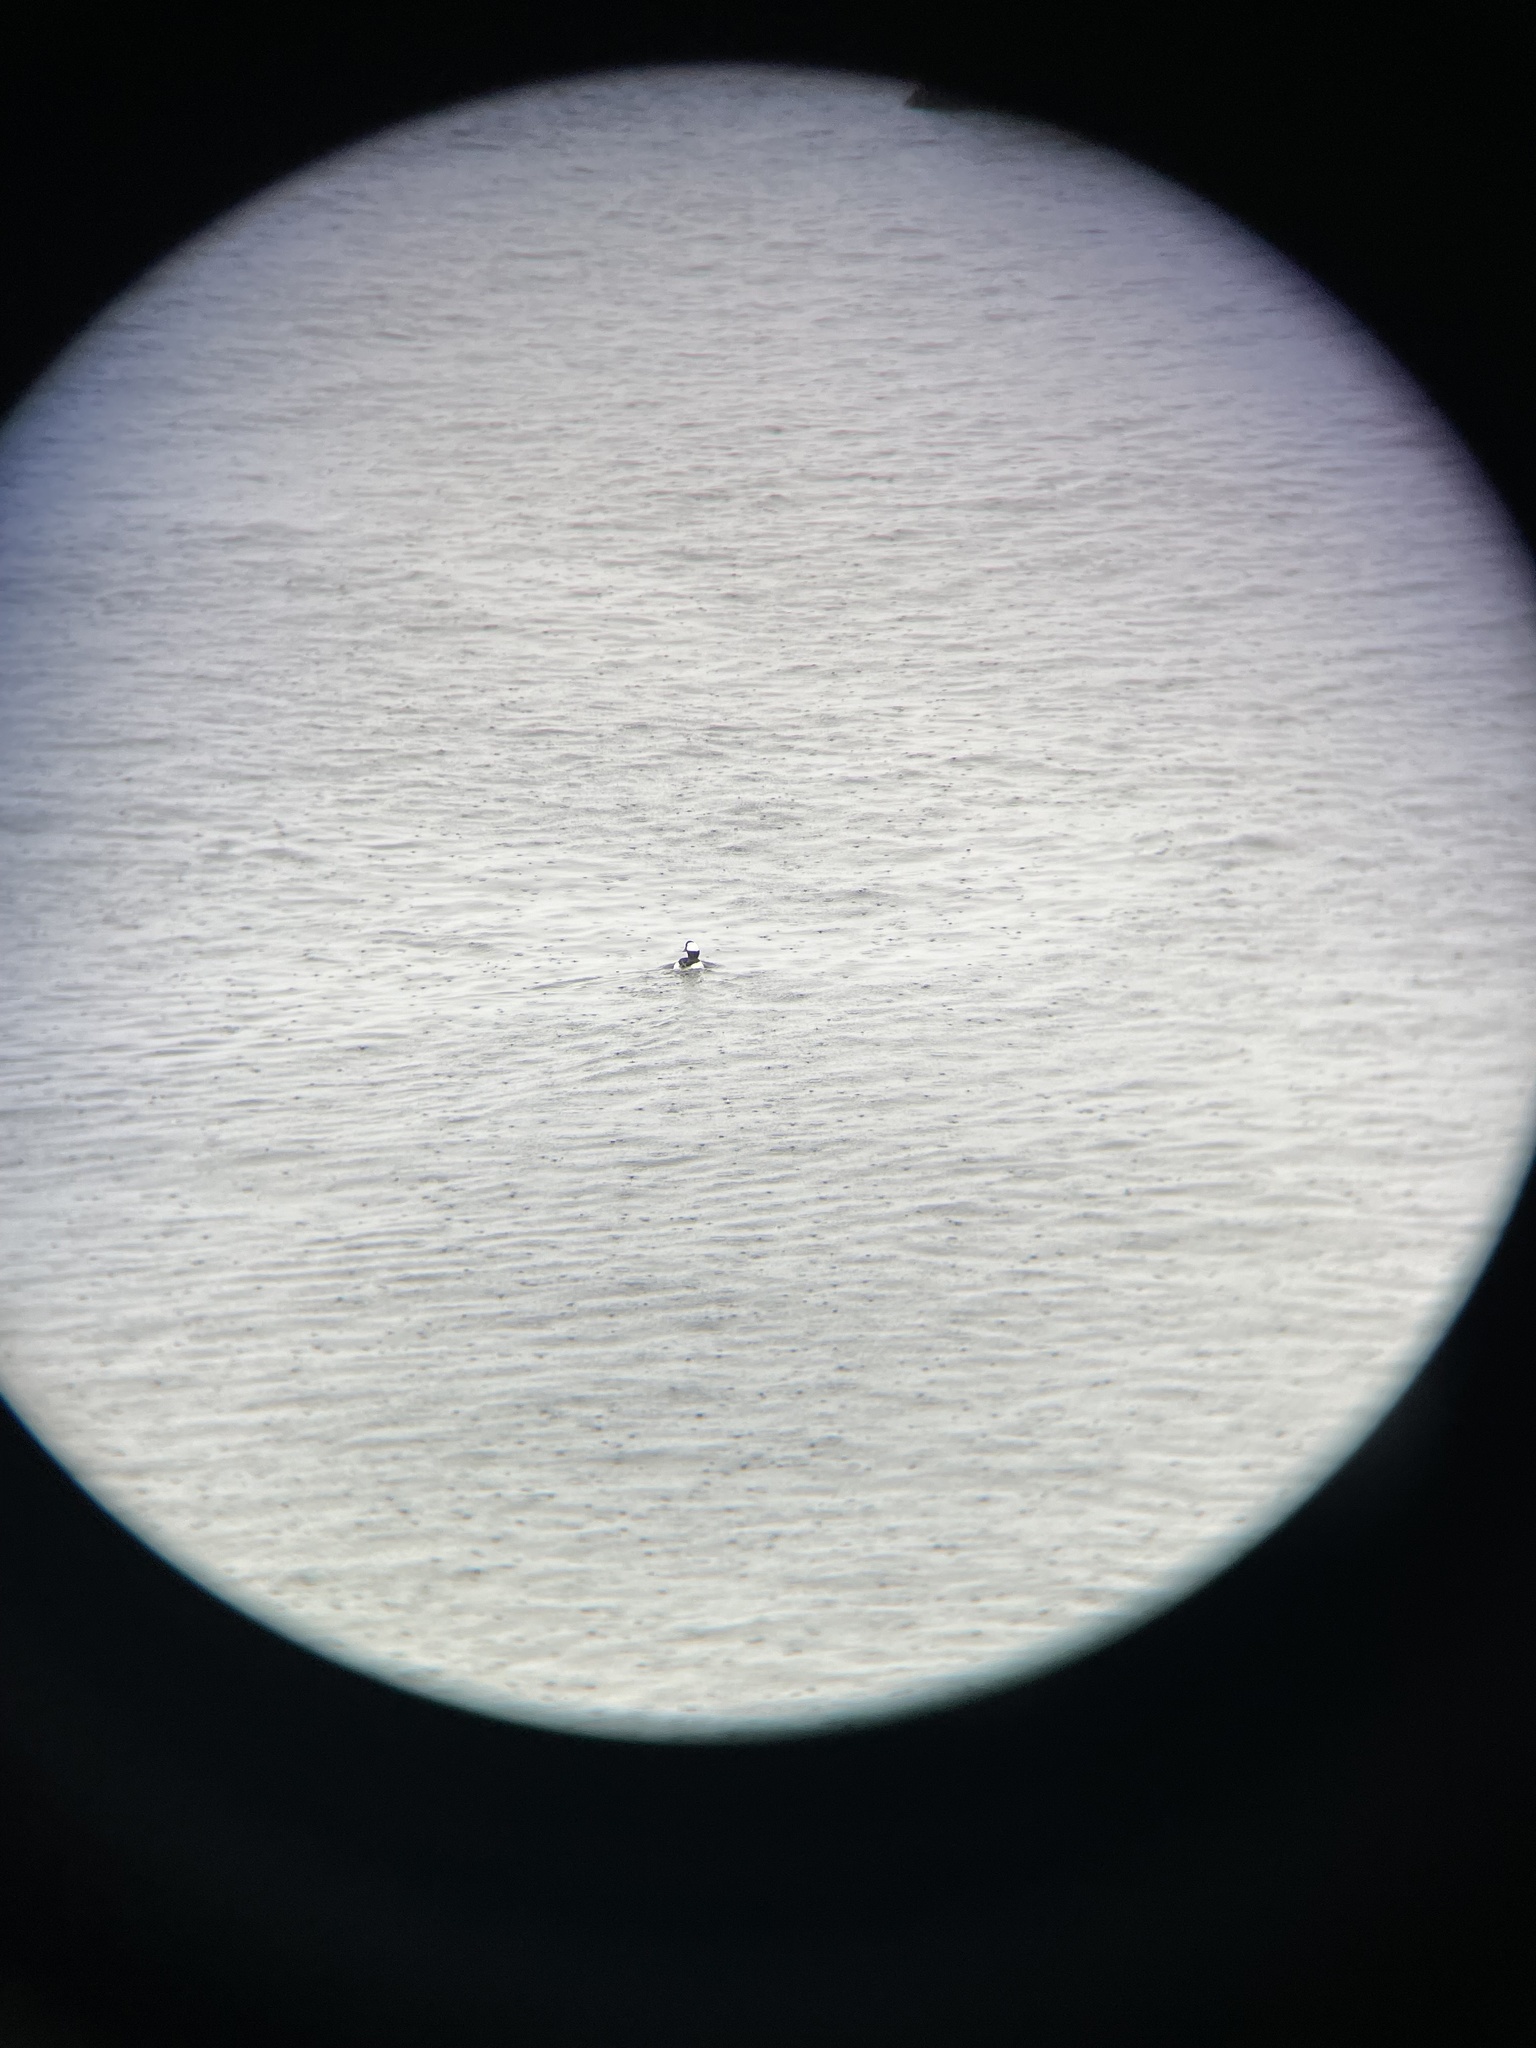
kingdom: Animalia
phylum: Chordata
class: Aves
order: Anseriformes
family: Anatidae
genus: Bucephala
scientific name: Bucephala albeola
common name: Bufflehead
